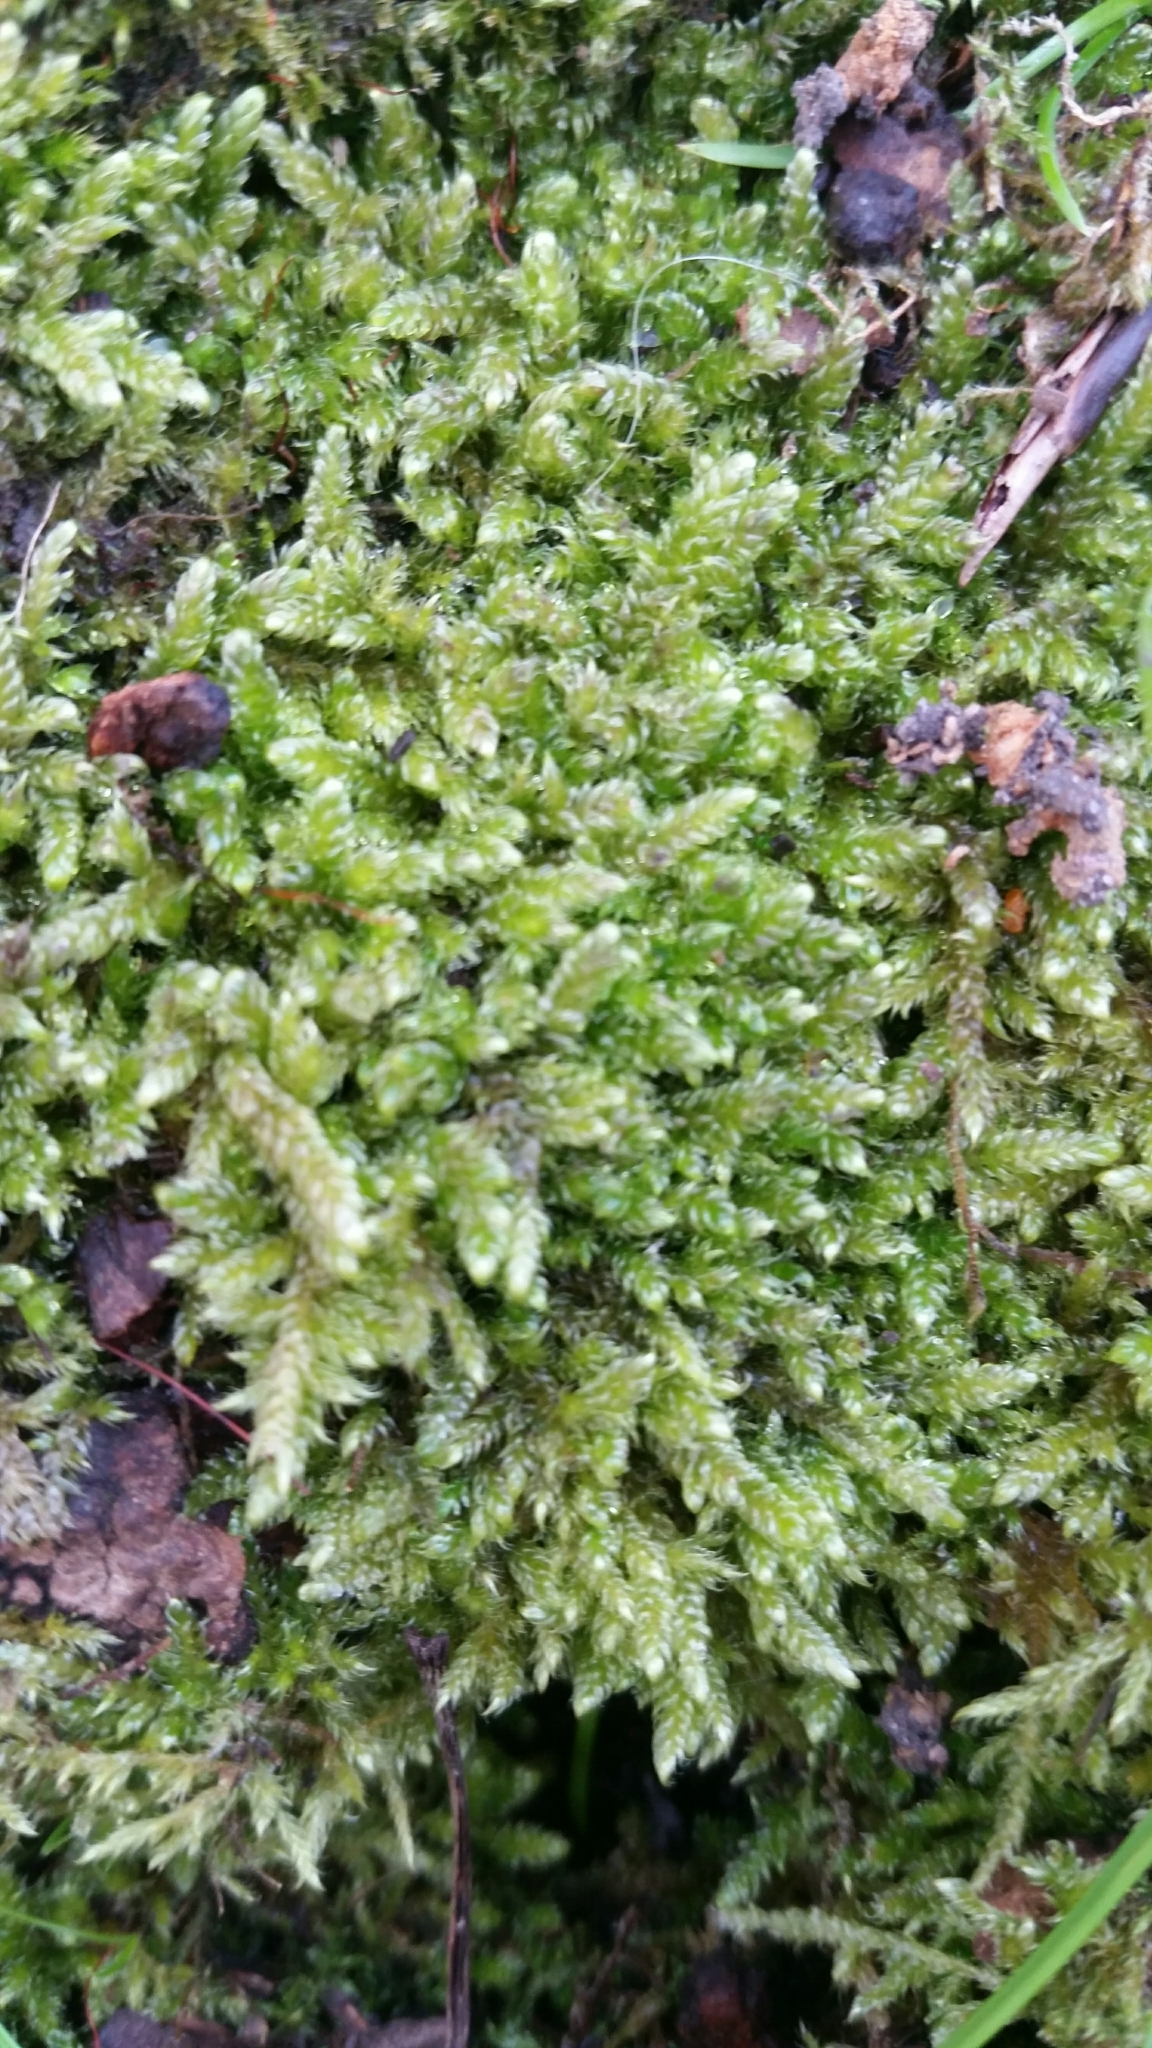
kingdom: Plantae
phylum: Bryophyta
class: Bryopsida
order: Hypnales
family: Hypnaceae
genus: Hypnum
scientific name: Hypnum cupressiforme
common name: Cypress-leaved plait-moss
